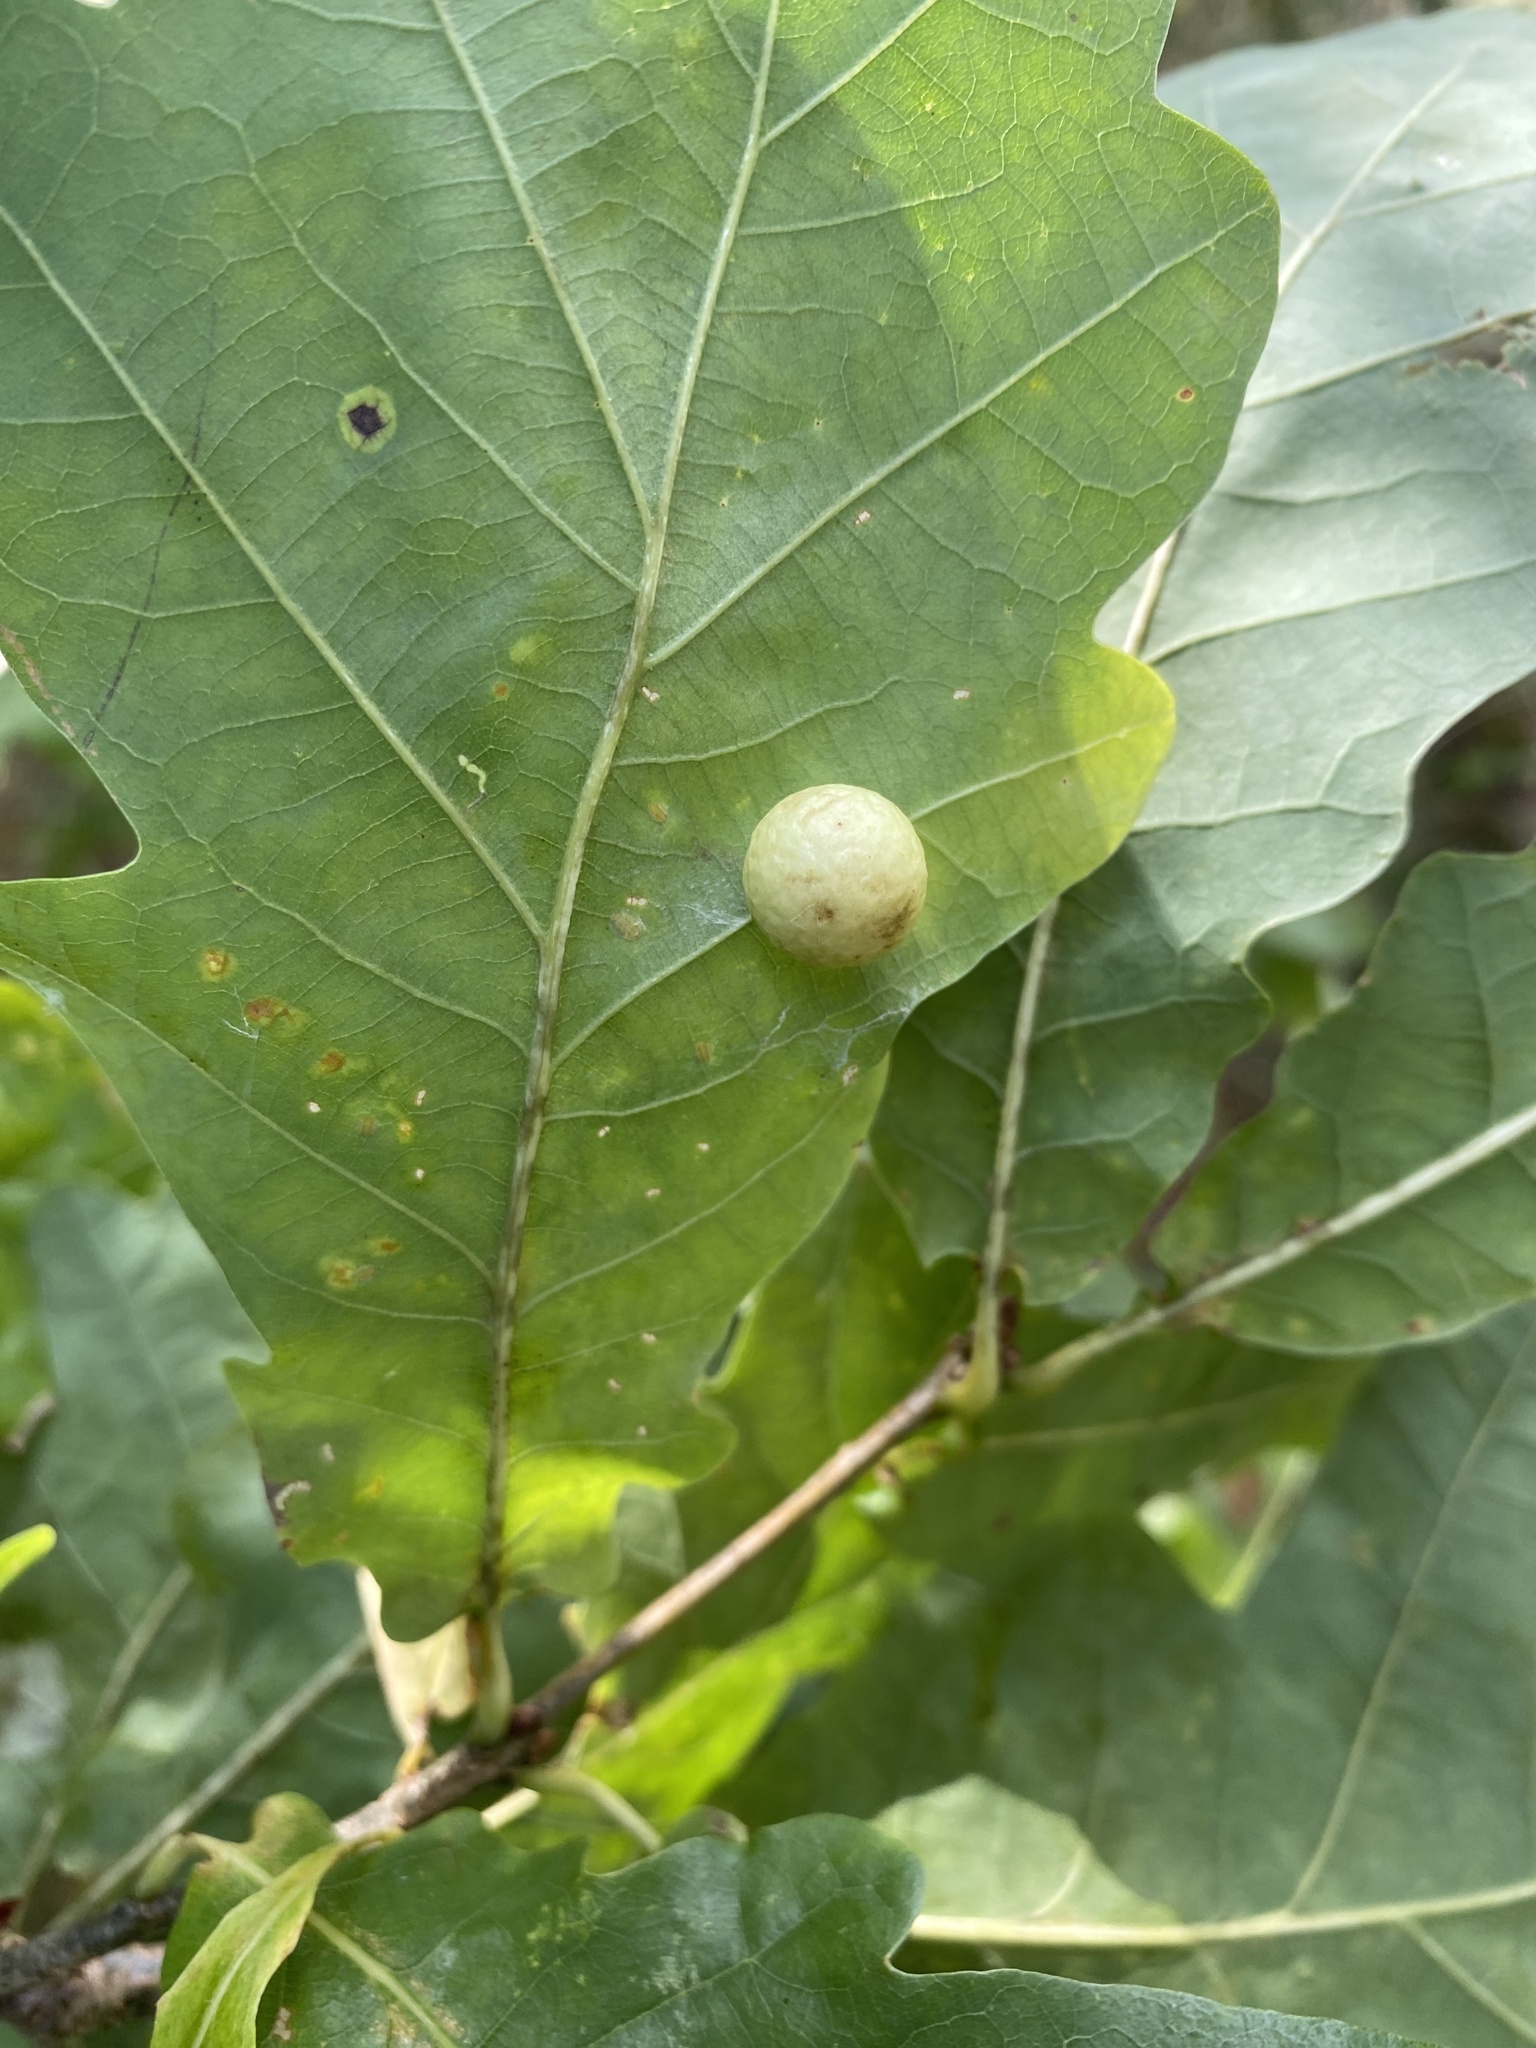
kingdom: Animalia
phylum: Arthropoda
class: Insecta
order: Hymenoptera
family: Cynipidae
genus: Cynips
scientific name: Cynips quercusfolii
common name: Cherry gall
